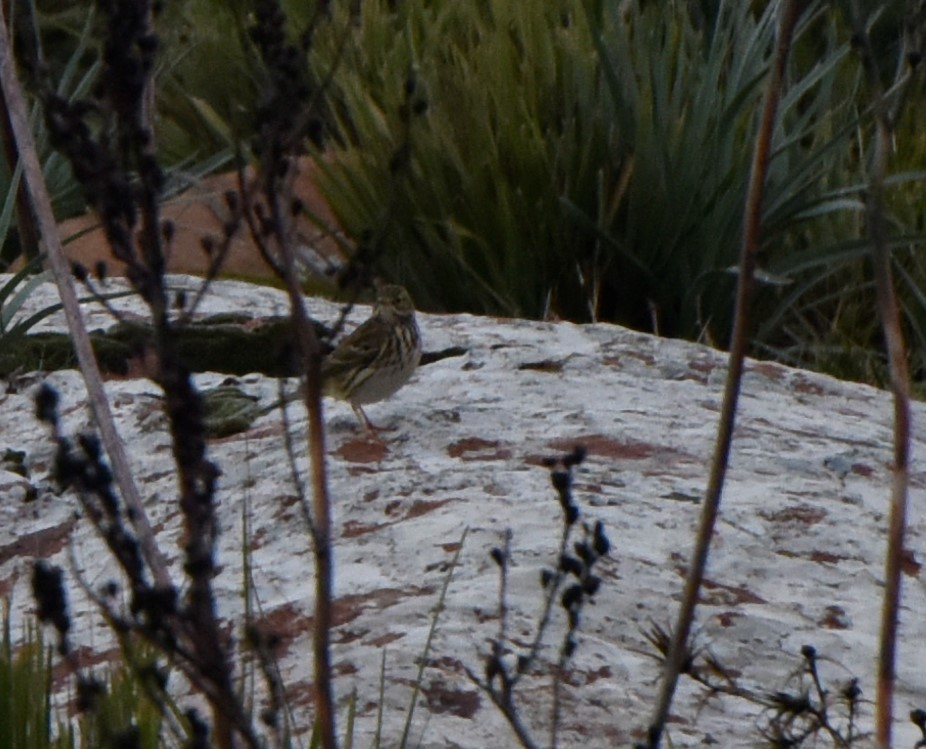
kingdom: Animalia
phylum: Chordata
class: Aves
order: Passeriformes
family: Motacillidae
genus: Anthus
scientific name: Anthus pratensis
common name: Meadow pipit
